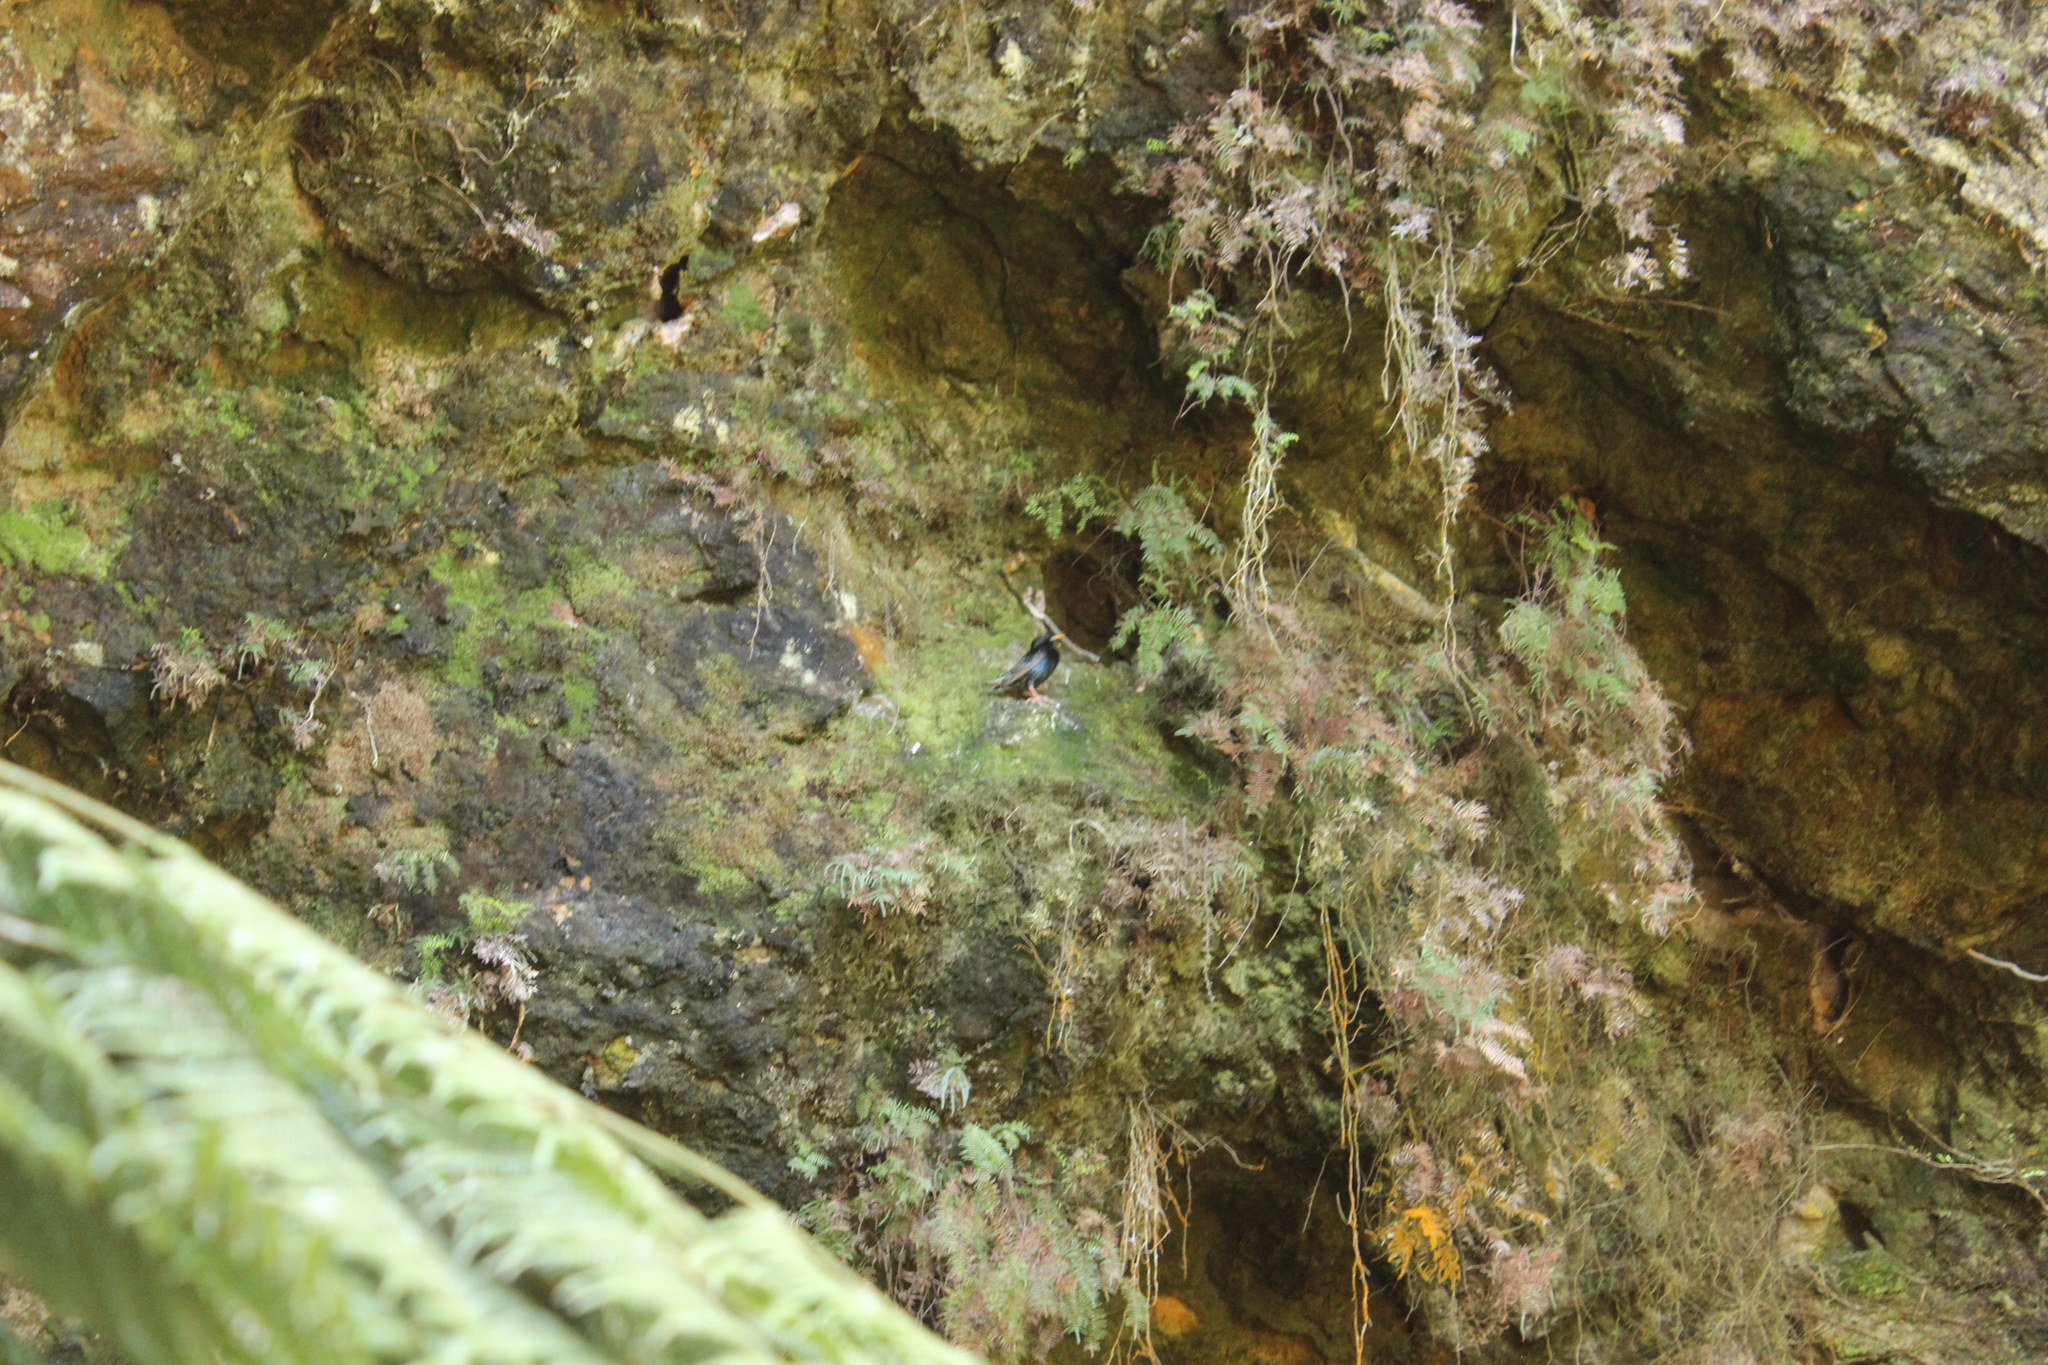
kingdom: Animalia
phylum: Chordata
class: Aves
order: Passeriformes
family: Sturnidae
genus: Sturnus
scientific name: Sturnus vulgaris
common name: Common starling
